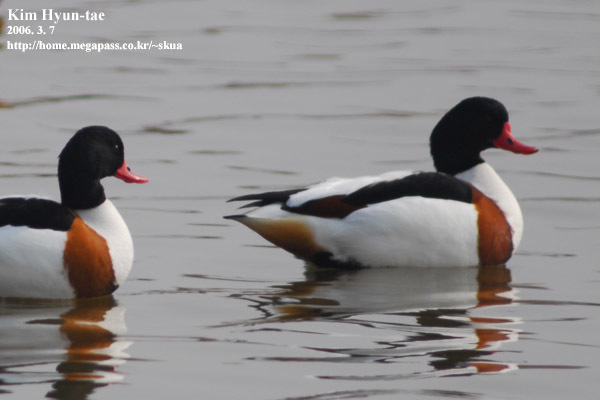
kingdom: Animalia
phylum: Chordata
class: Aves
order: Anseriformes
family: Anatidae
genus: Tadorna
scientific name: Tadorna tadorna
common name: Common shelduck
